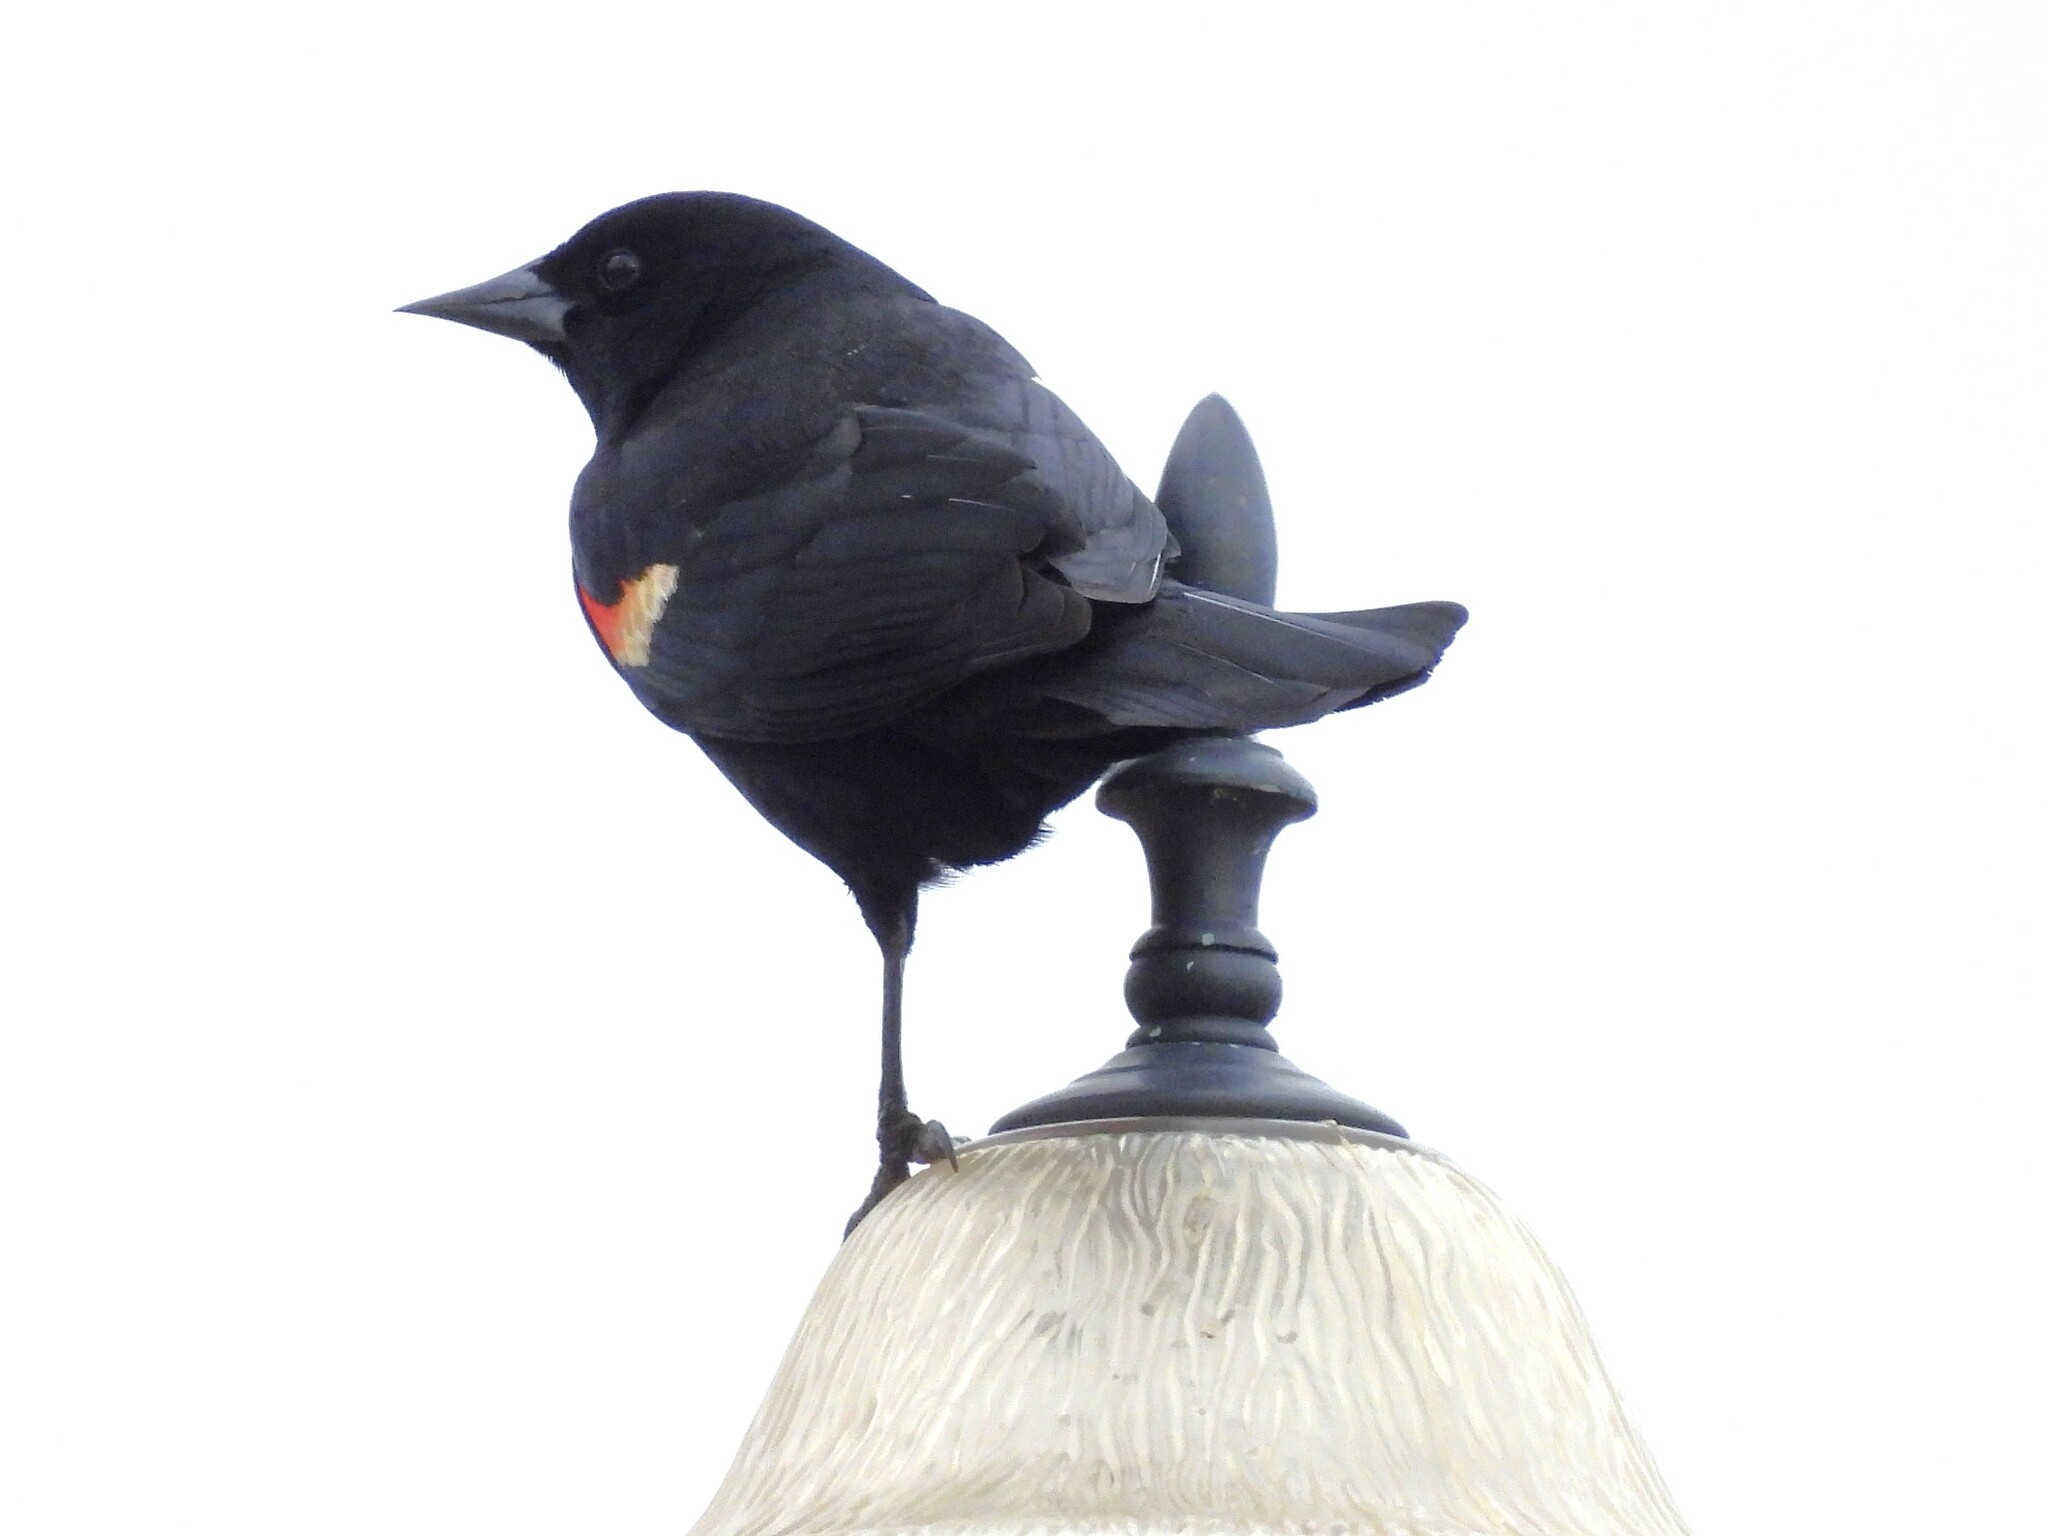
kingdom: Animalia
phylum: Chordata
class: Aves
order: Passeriformes
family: Icteridae
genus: Agelaius
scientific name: Agelaius phoeniceus
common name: Red-winged blackbird
